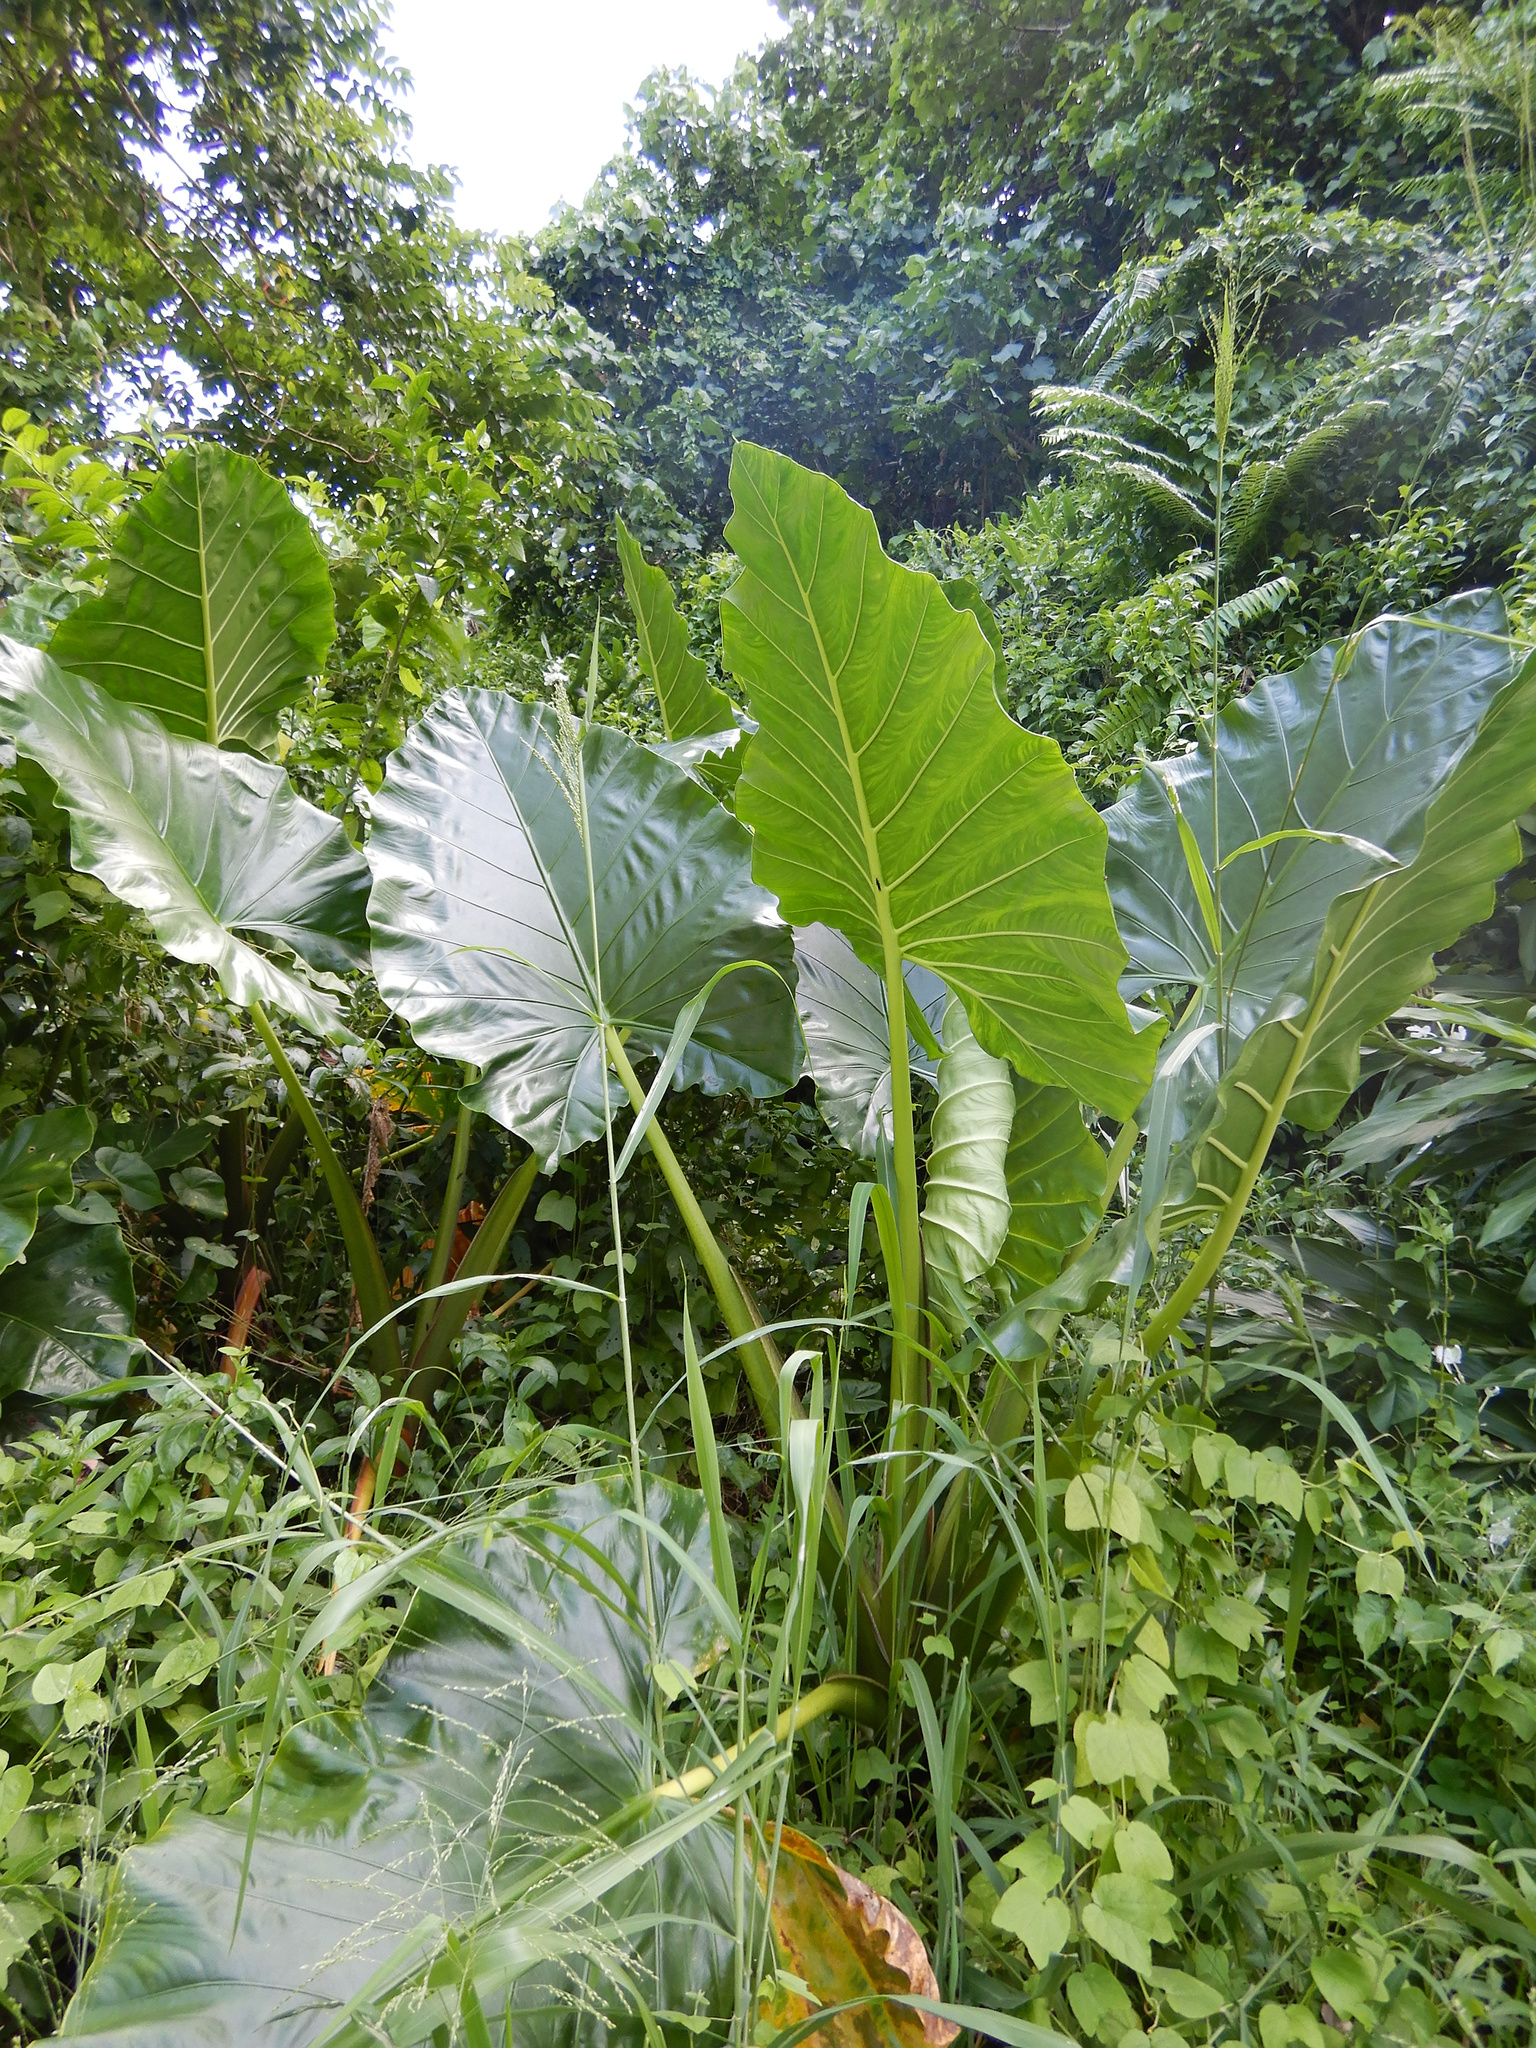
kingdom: Plantae
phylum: Tracheophyta
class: Liliopsida
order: Alismatales
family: Araceae
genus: Alocasia
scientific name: Alocasia macrorrhizos
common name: Giant taro
